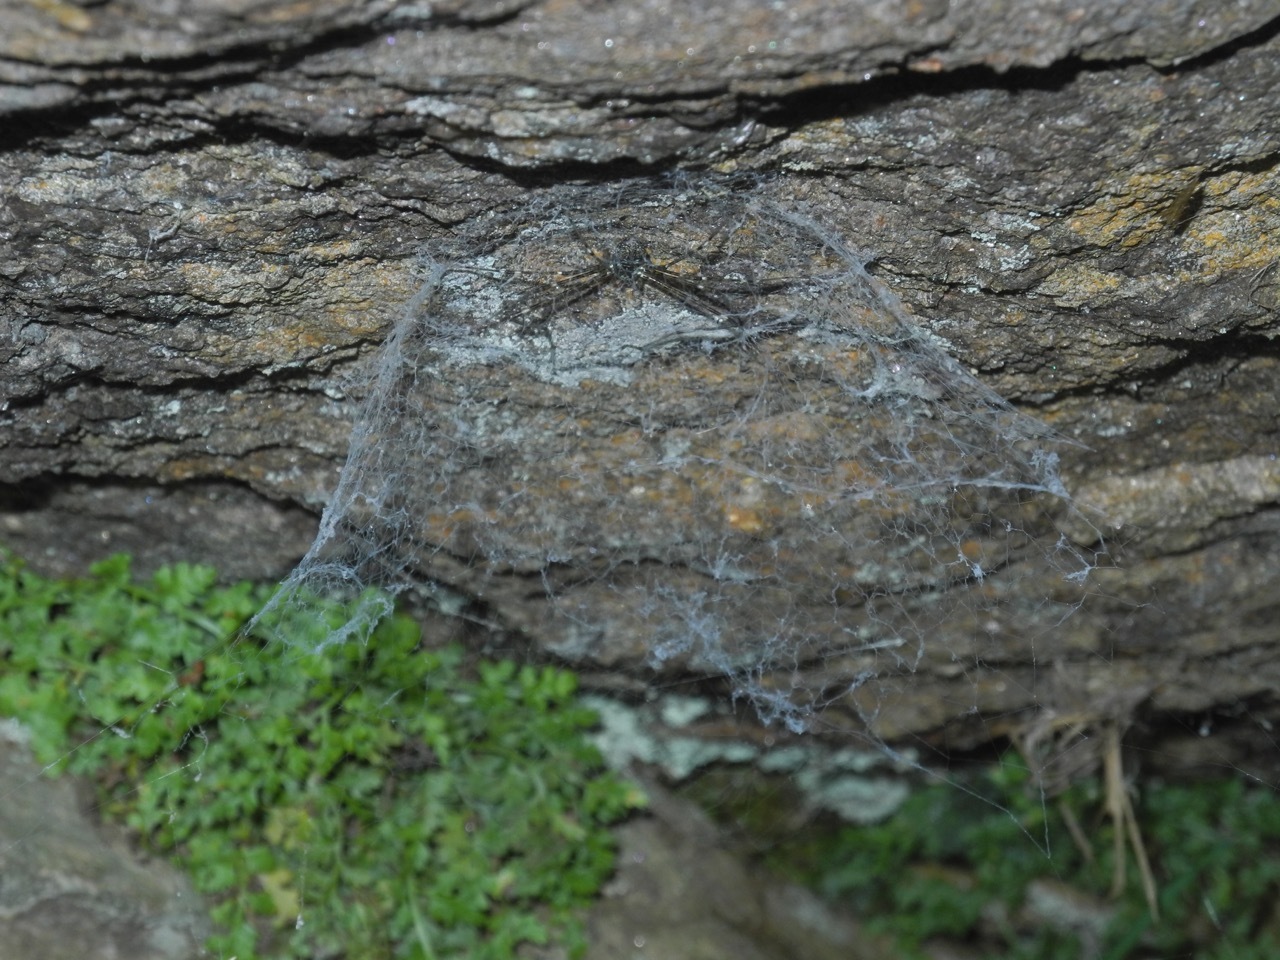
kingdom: Animalia
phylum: Arthropoda
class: Arachnida
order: Araneae
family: Hypochilidae
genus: Hypochilus
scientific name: Hypochilus pococki
